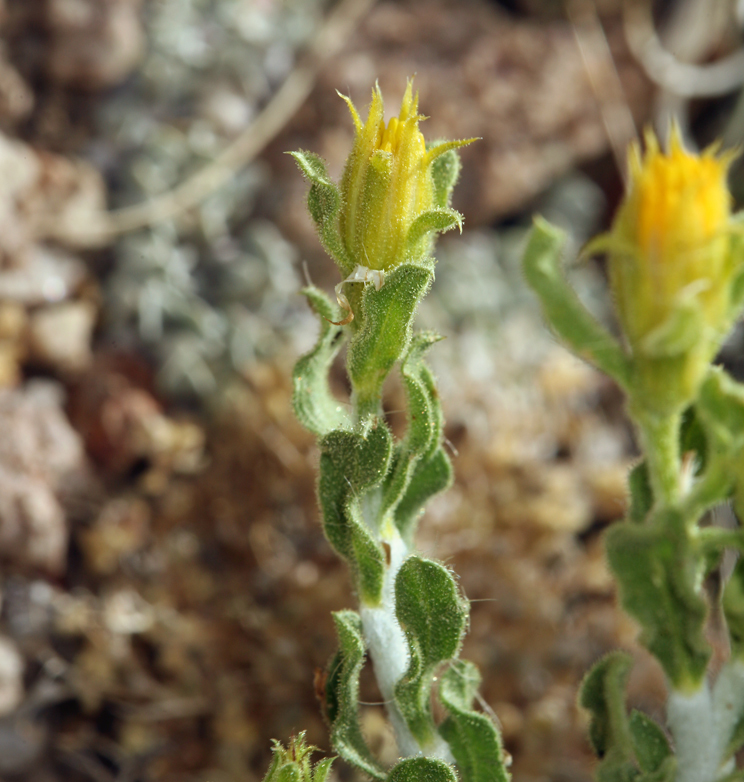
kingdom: Plantae
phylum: Tracheophyta
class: Magnoliopsida
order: Asterales
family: Asteraceae
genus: Ericameria
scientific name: Ericameria discoidea
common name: Sharp-scale goldenweed
